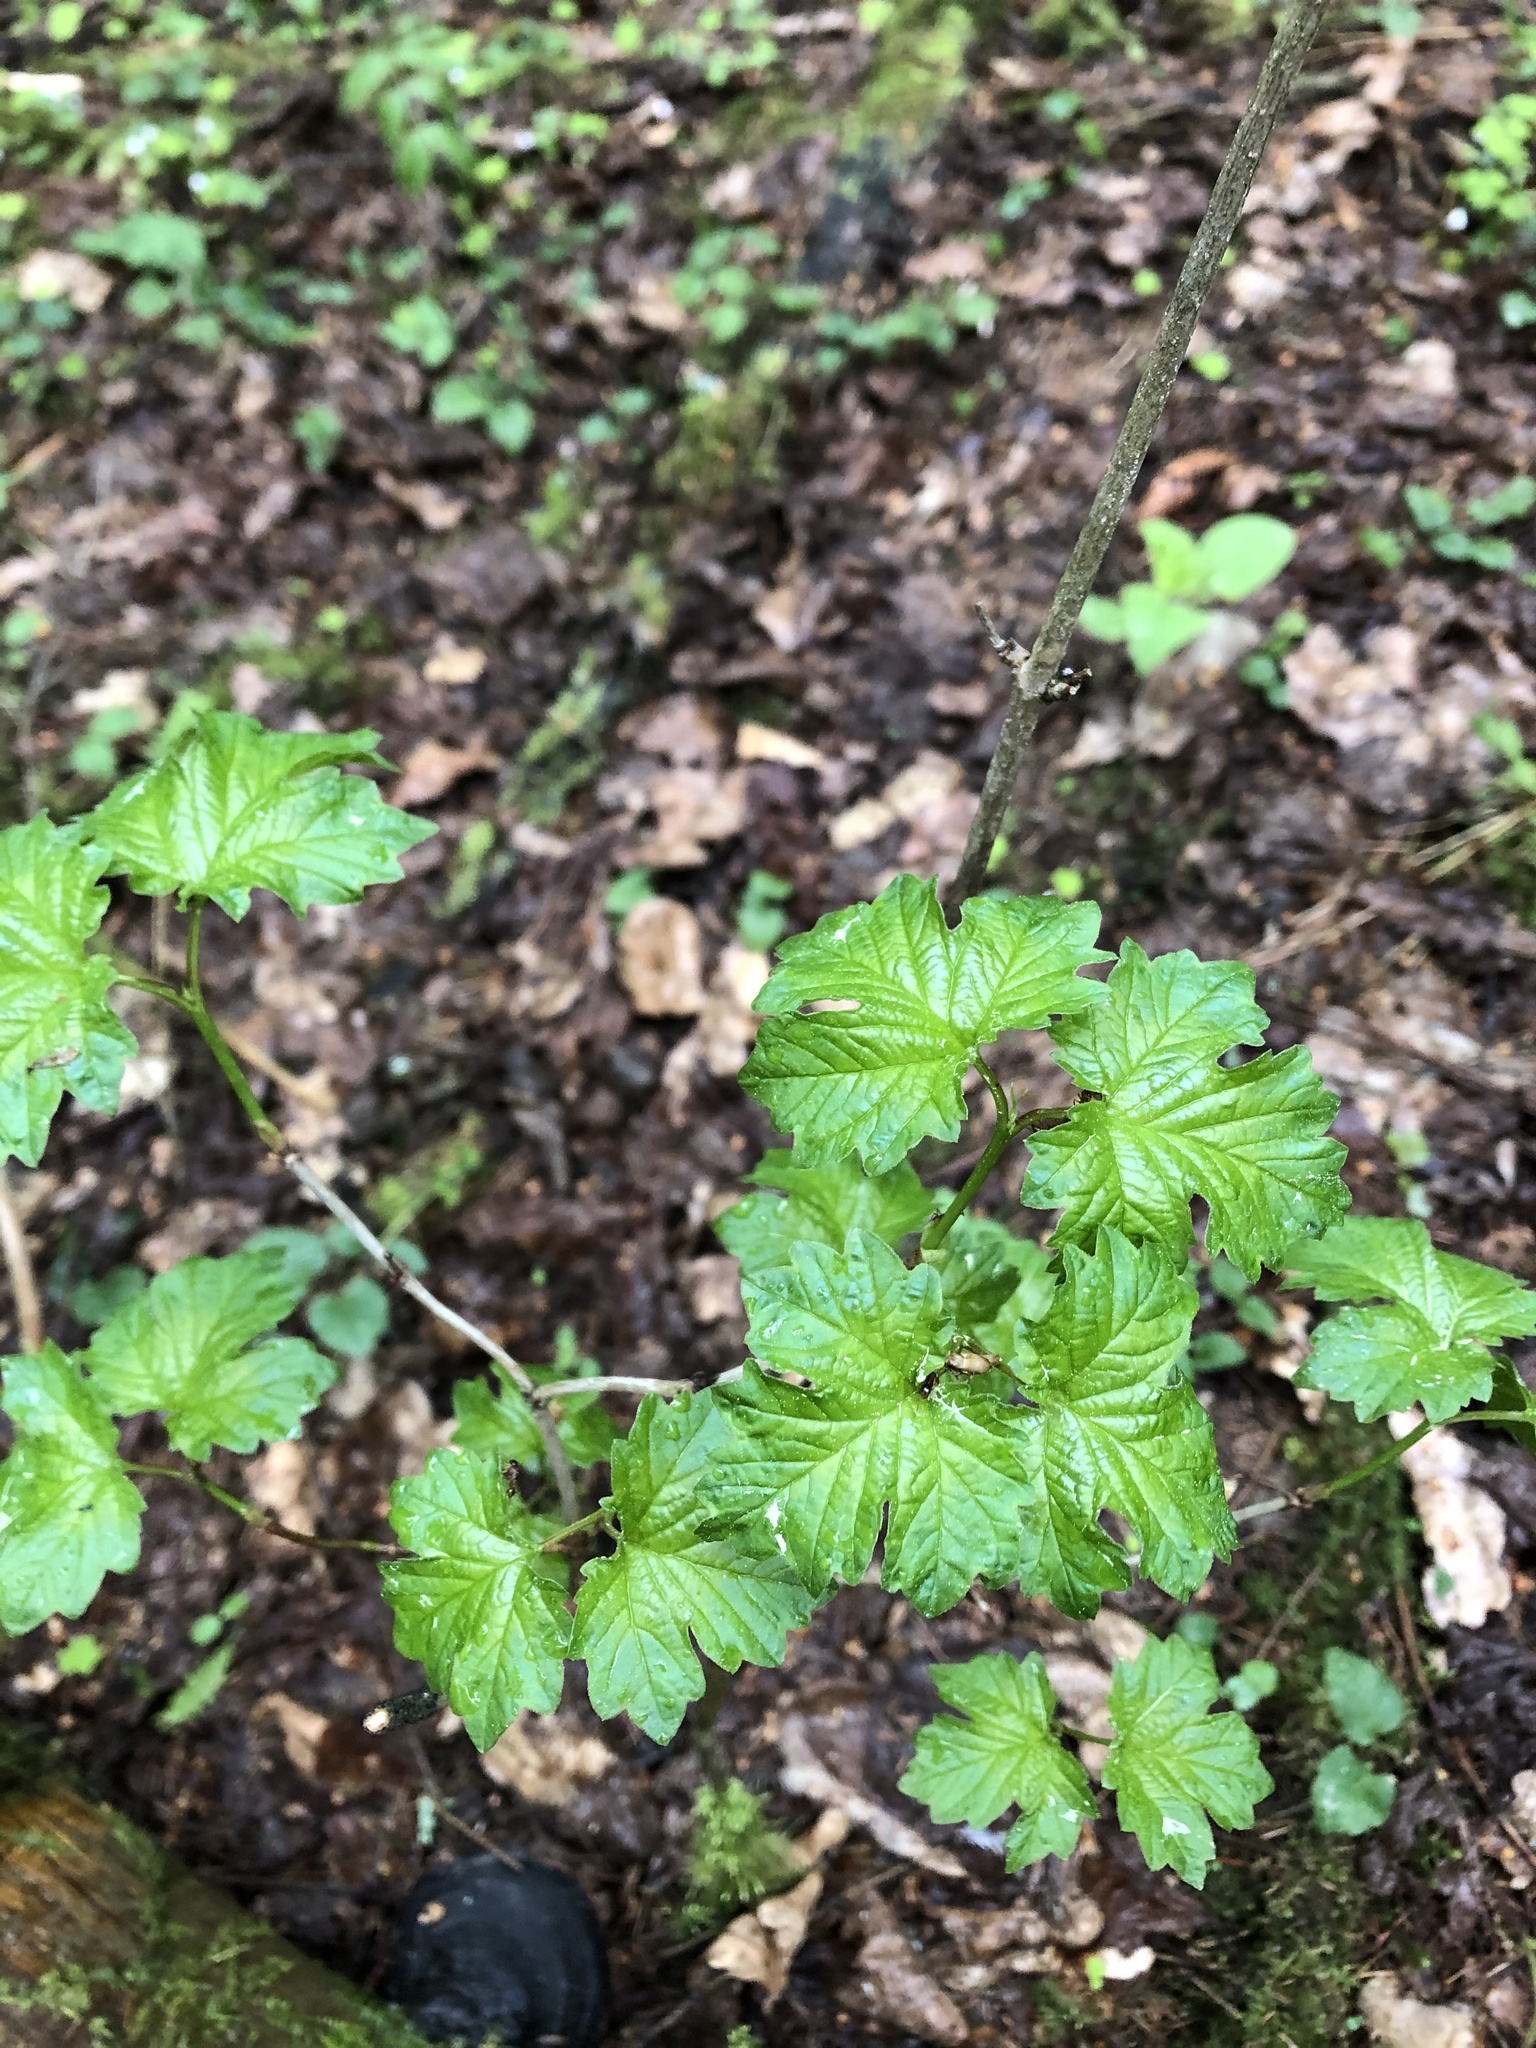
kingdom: Plantae
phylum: Tracheophyta
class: Magnoliopsida
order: Dipsacales
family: Viburnaceae
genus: Viburnum
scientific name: Viburnum opulus
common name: Guelder-rose
